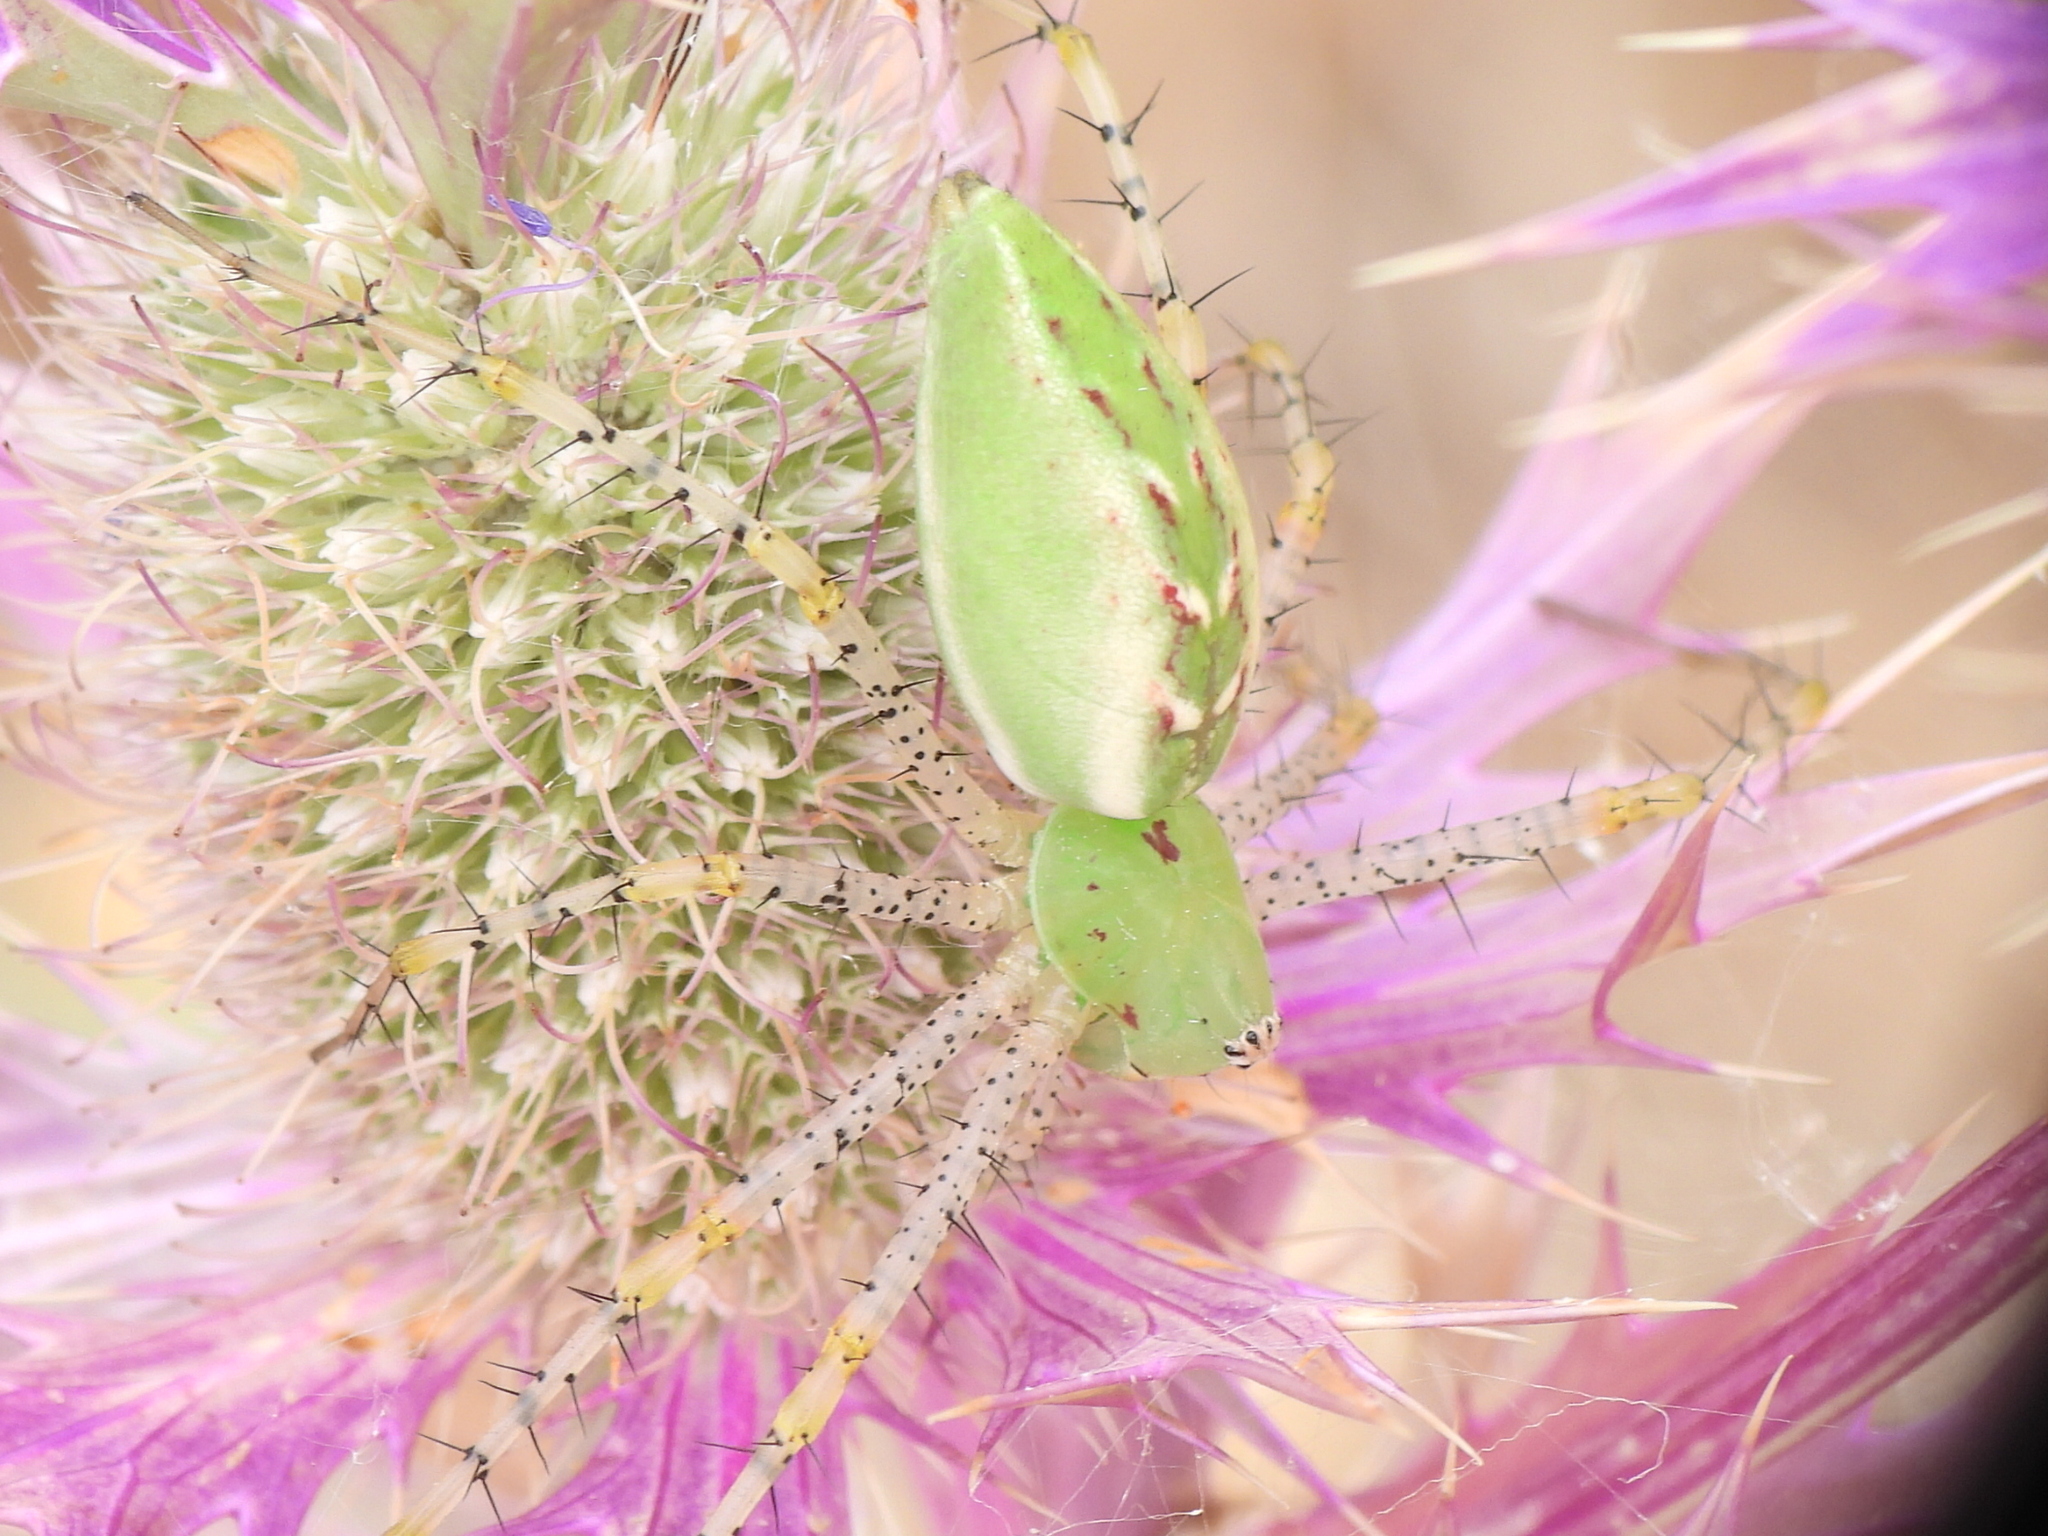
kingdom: Animalia
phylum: Arthropoda
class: Arachnida
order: Araneae
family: Oxyopidae
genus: Peucetia
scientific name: Peucetia viridans
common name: Lynx spiders
